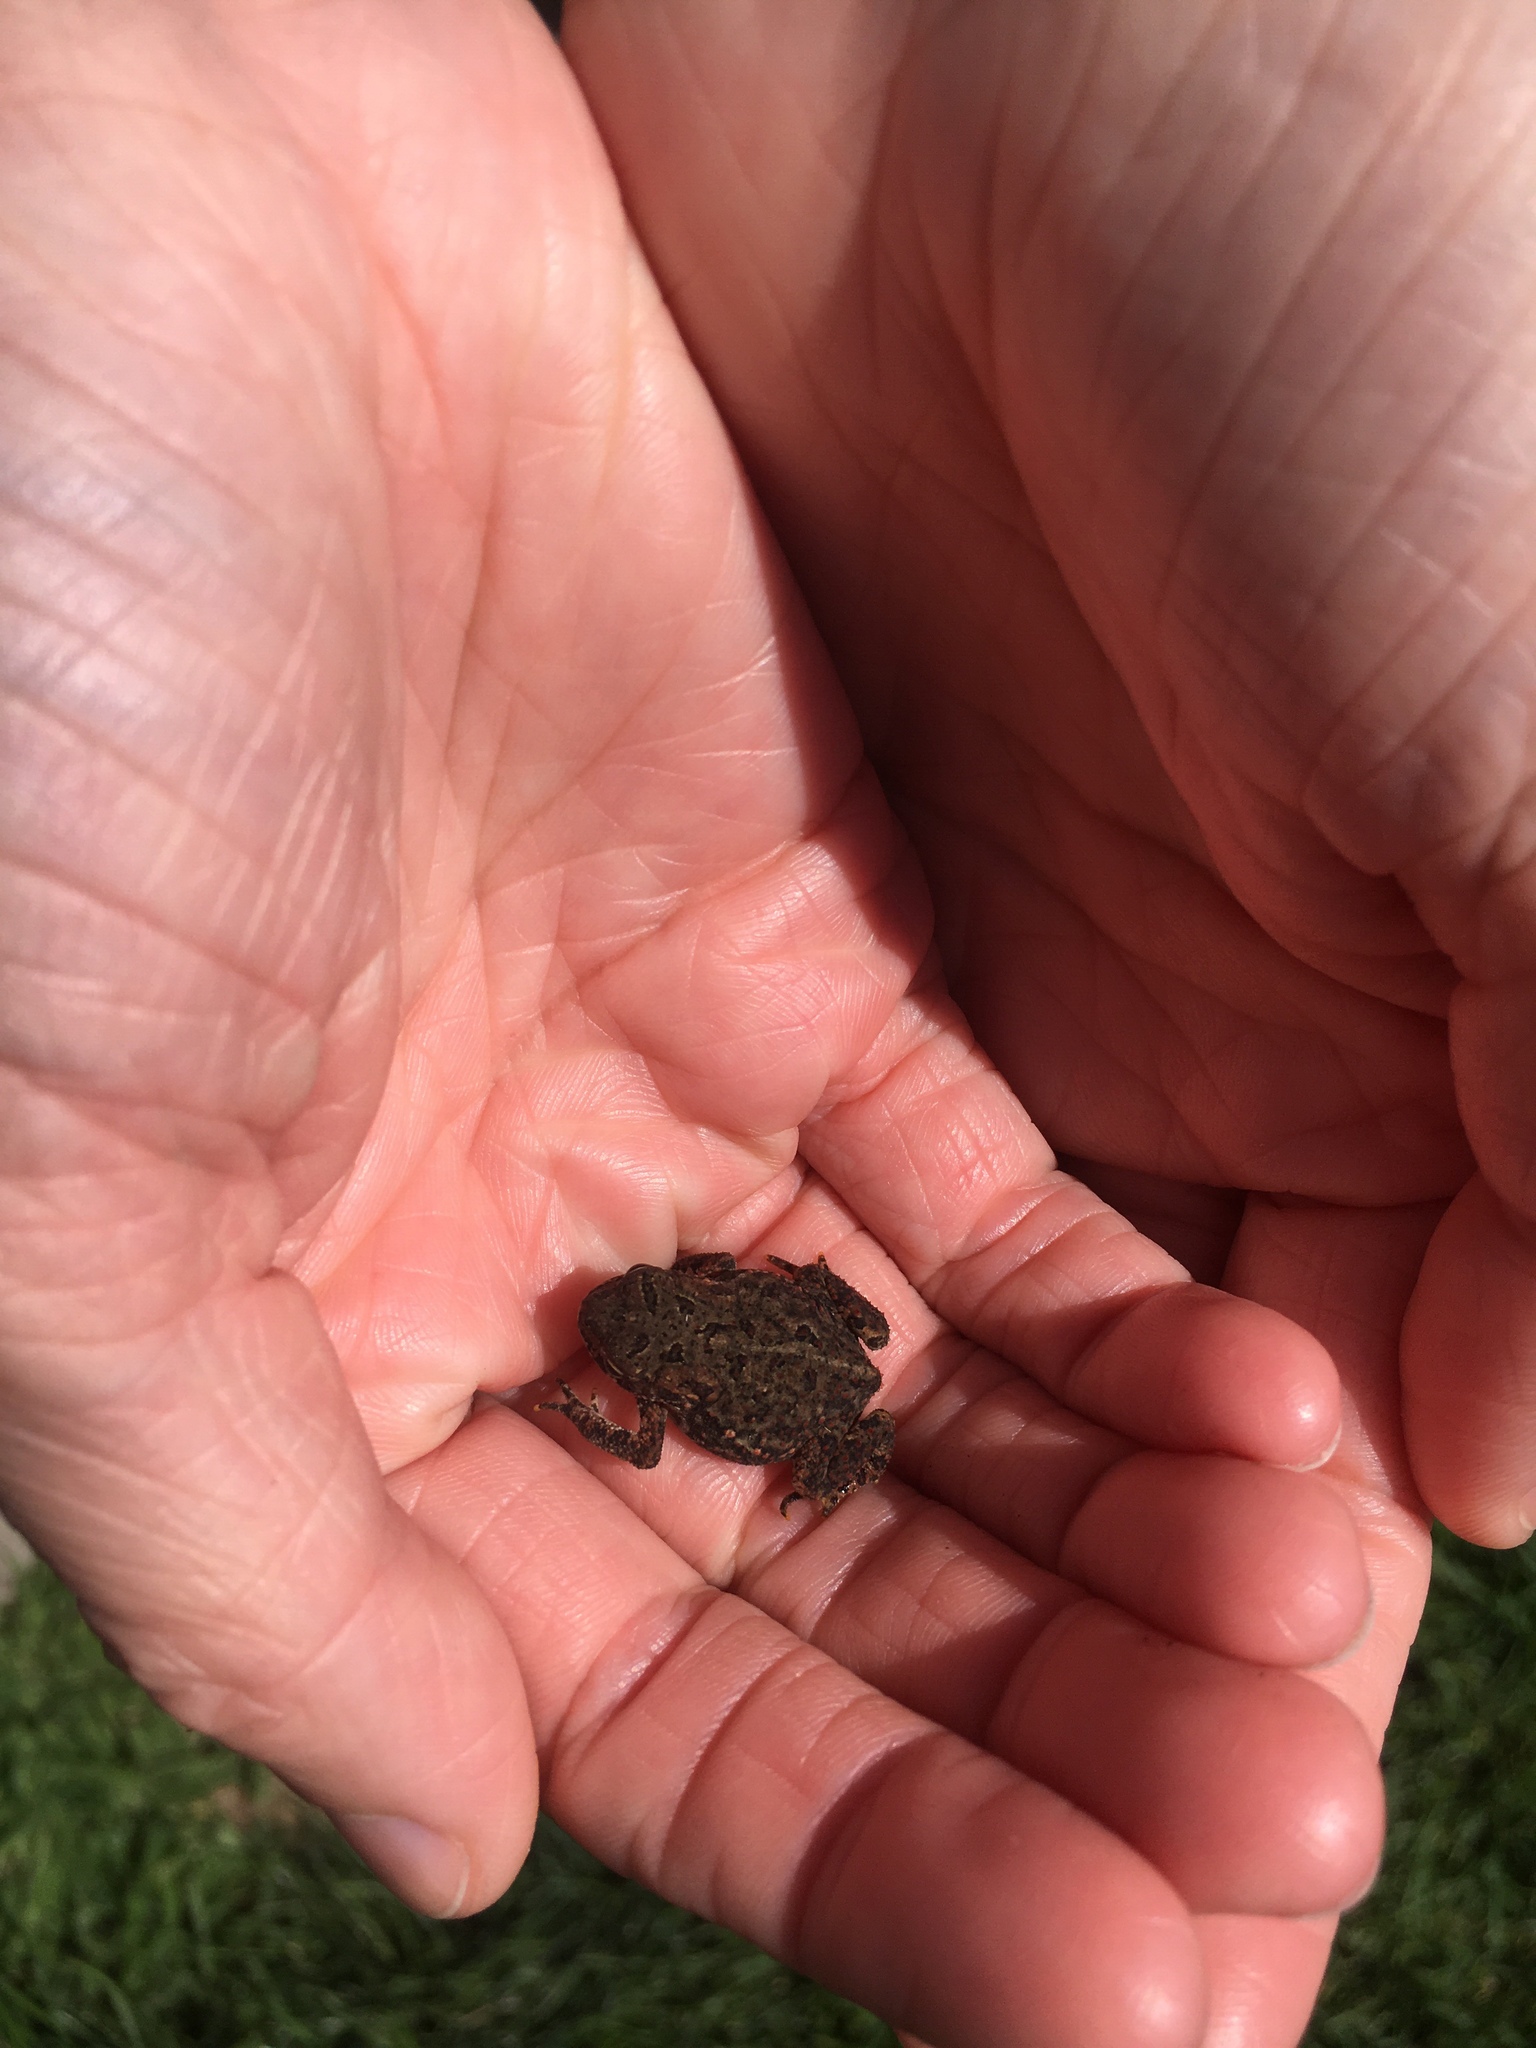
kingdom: Animalia
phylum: Chordata
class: Amphibia
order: Anura
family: Bufonidae
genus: Anaxyrus
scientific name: Anaxyrus americanus
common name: American toad
